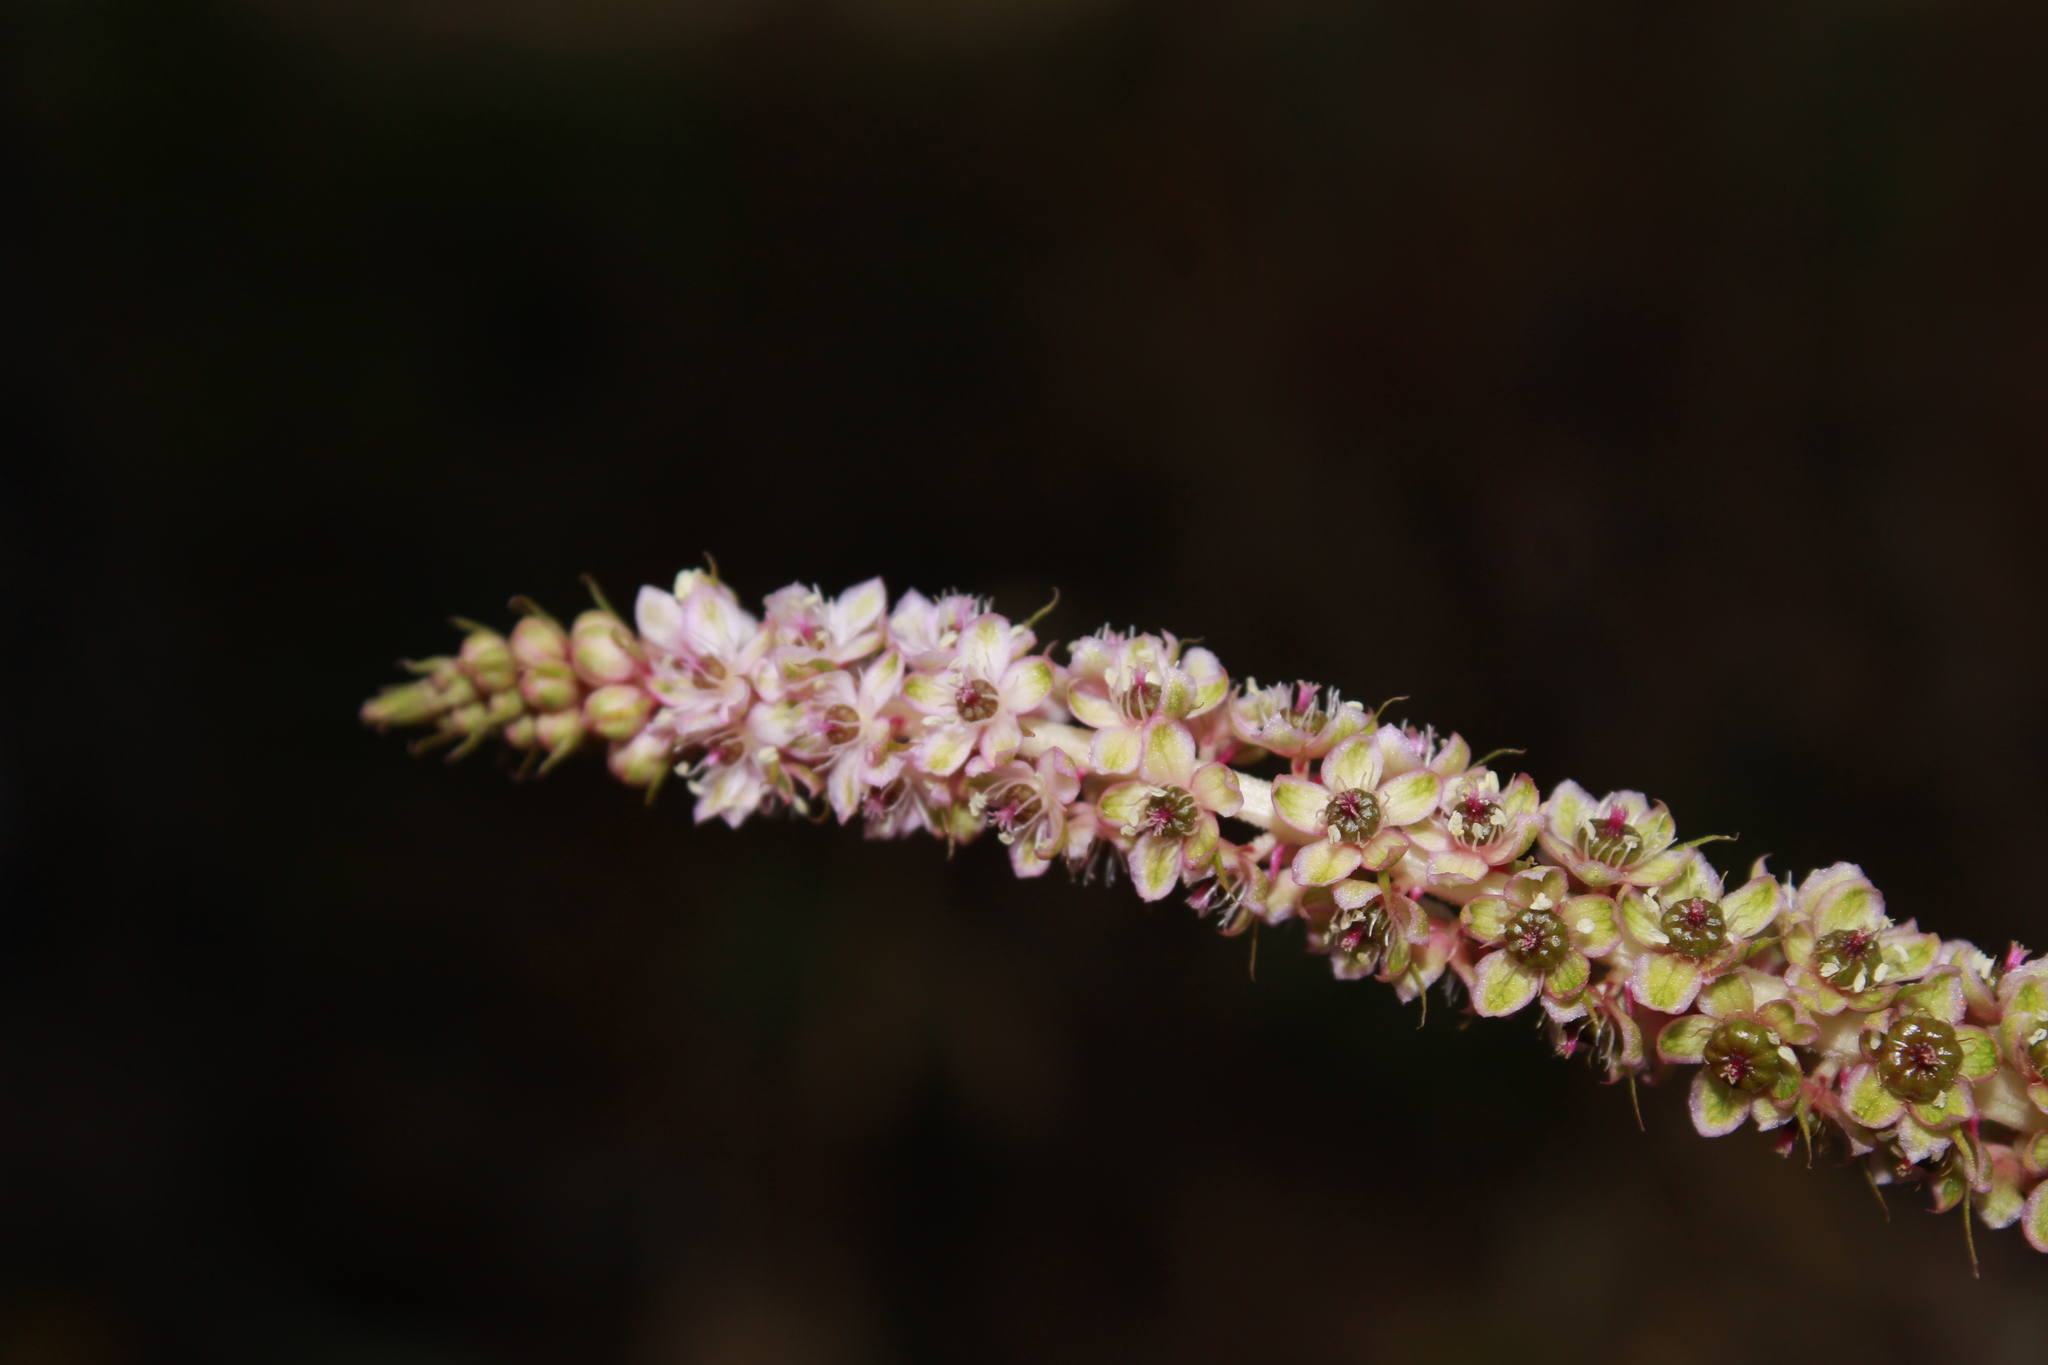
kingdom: Plantae
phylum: Tracheophyta
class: Magnoliopsida
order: Caryophyllales
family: Phytolaccaceae
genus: Phytolacca
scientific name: Phytolacca icosandra
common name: Button pokeweed
